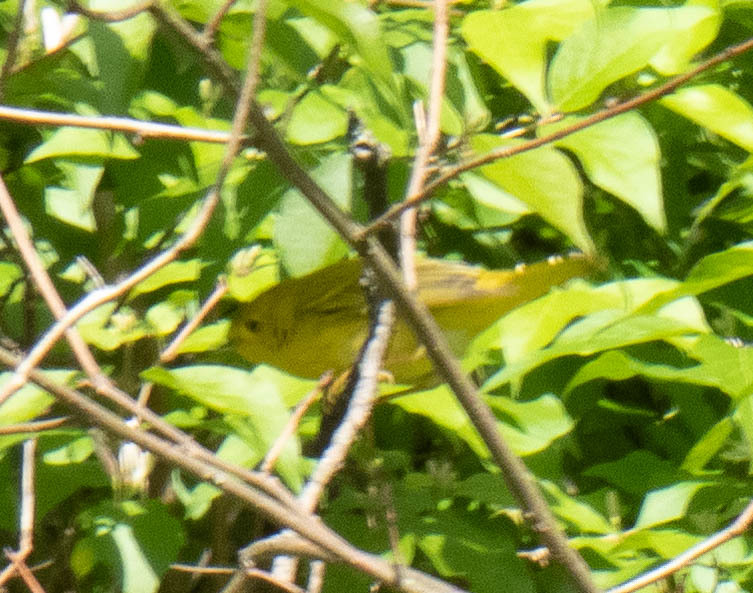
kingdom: Animalia
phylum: Chordata
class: Aves
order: Passeriformes
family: Parulidae
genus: Setophaga
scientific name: Setophaga petechia
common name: Yellow warbler
